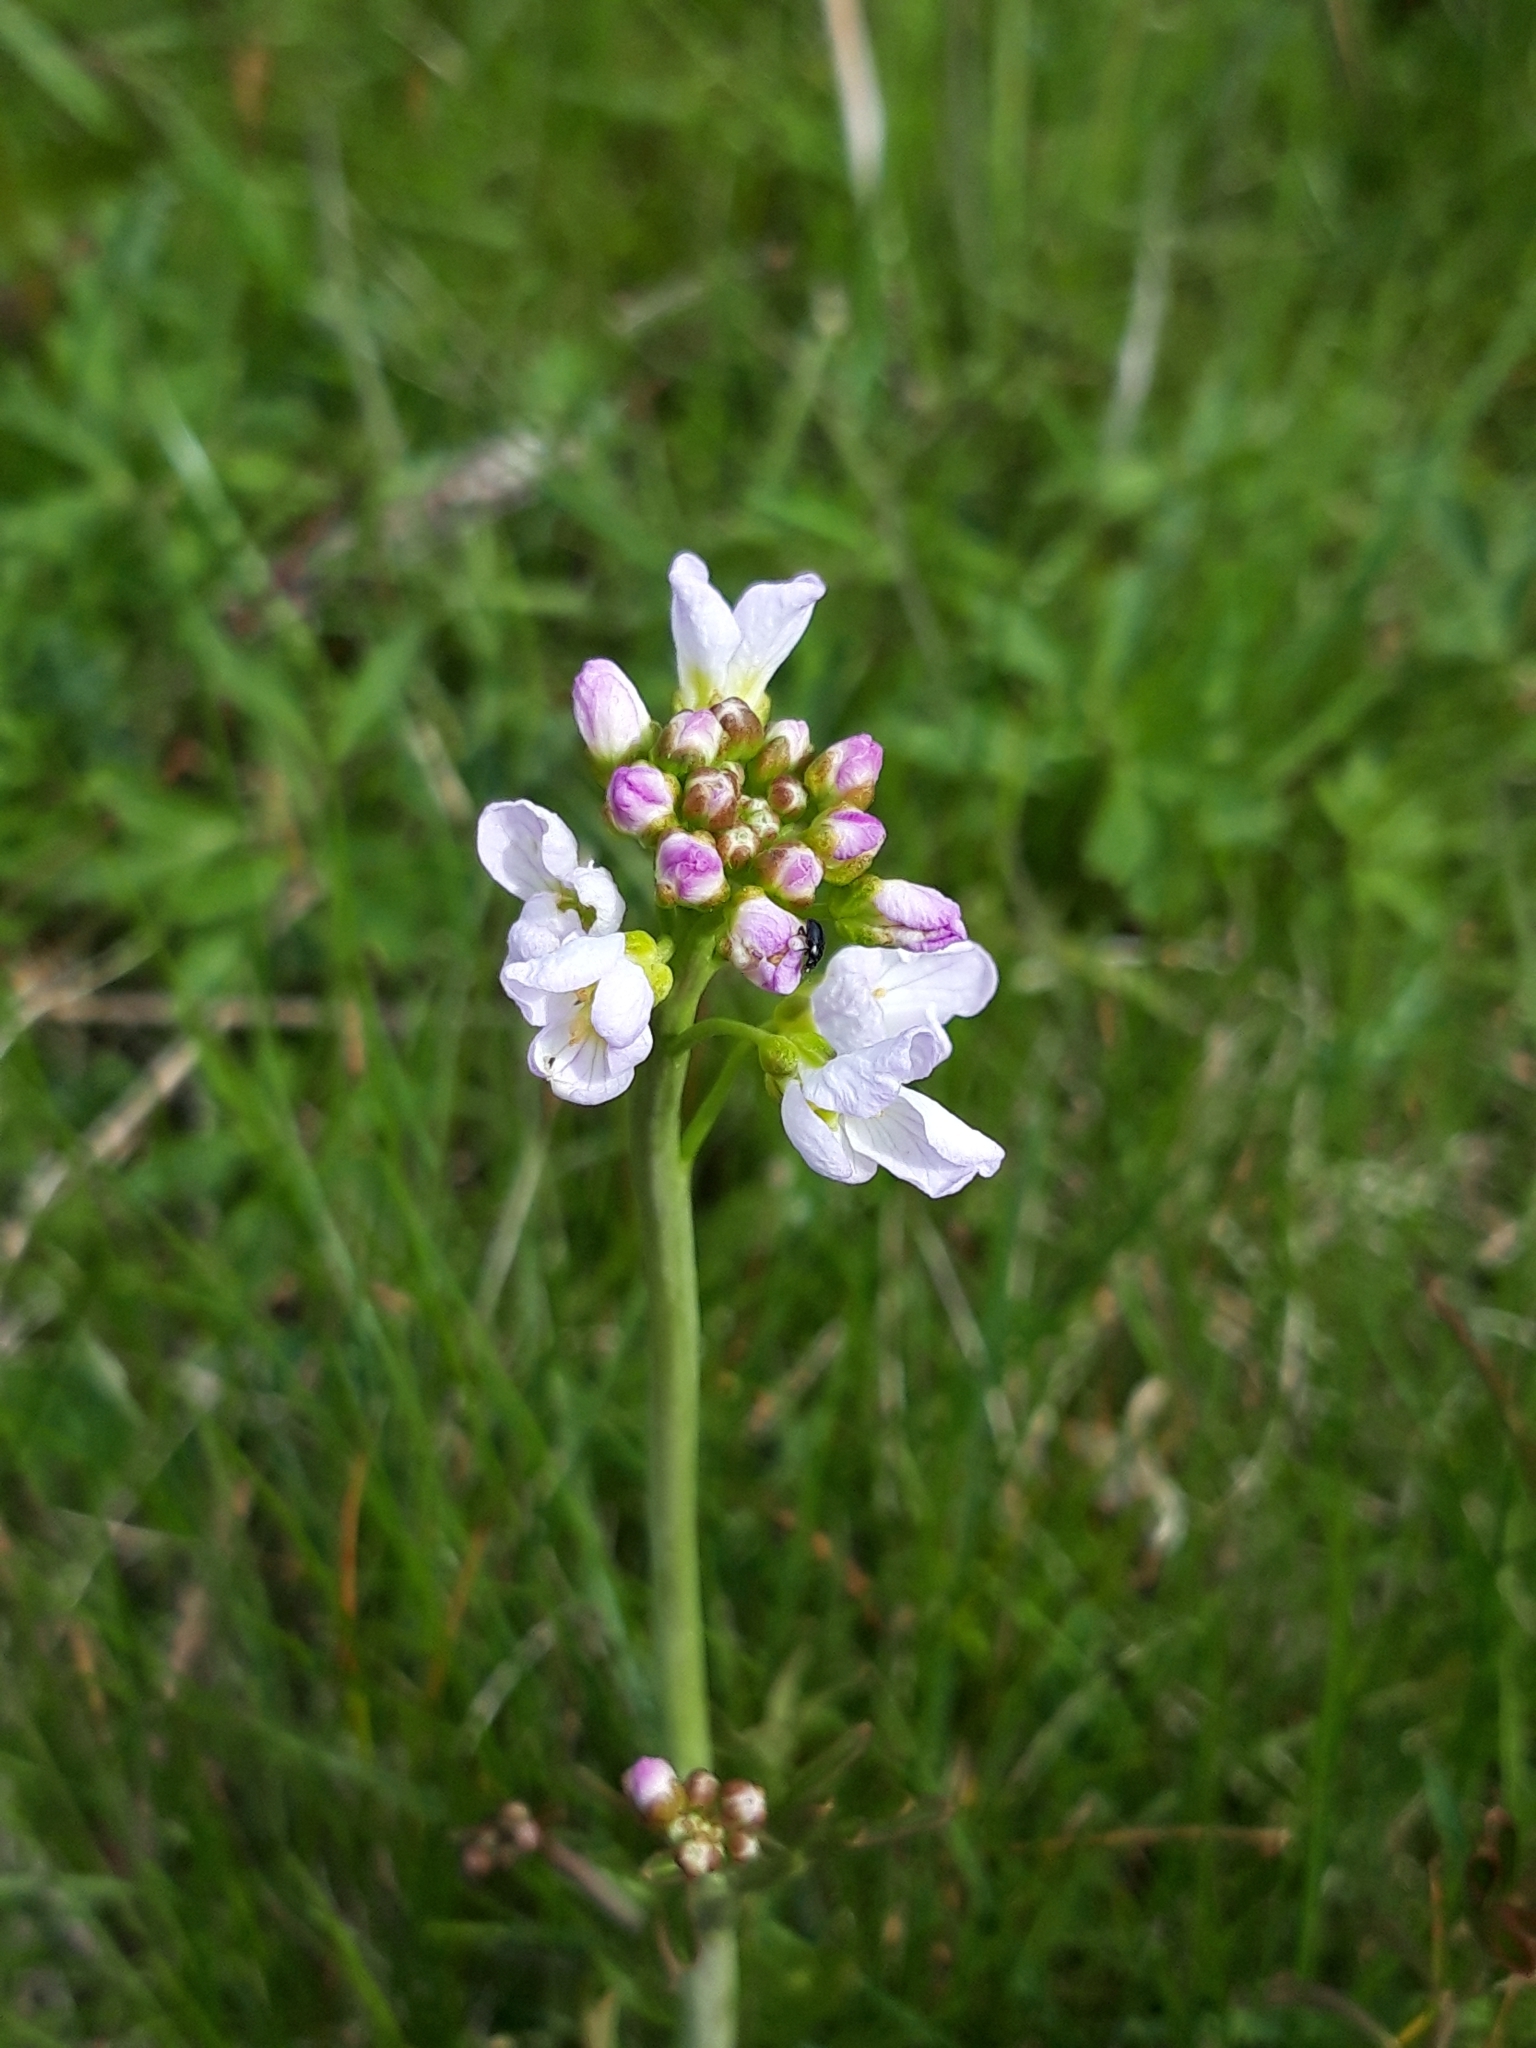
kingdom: Plantae
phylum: Tracheophyta
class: Magnoliopsida
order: Brassicales
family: Brassicaceae
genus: Cardamine
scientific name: Cardamine pratensis
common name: Cuckoo flower
